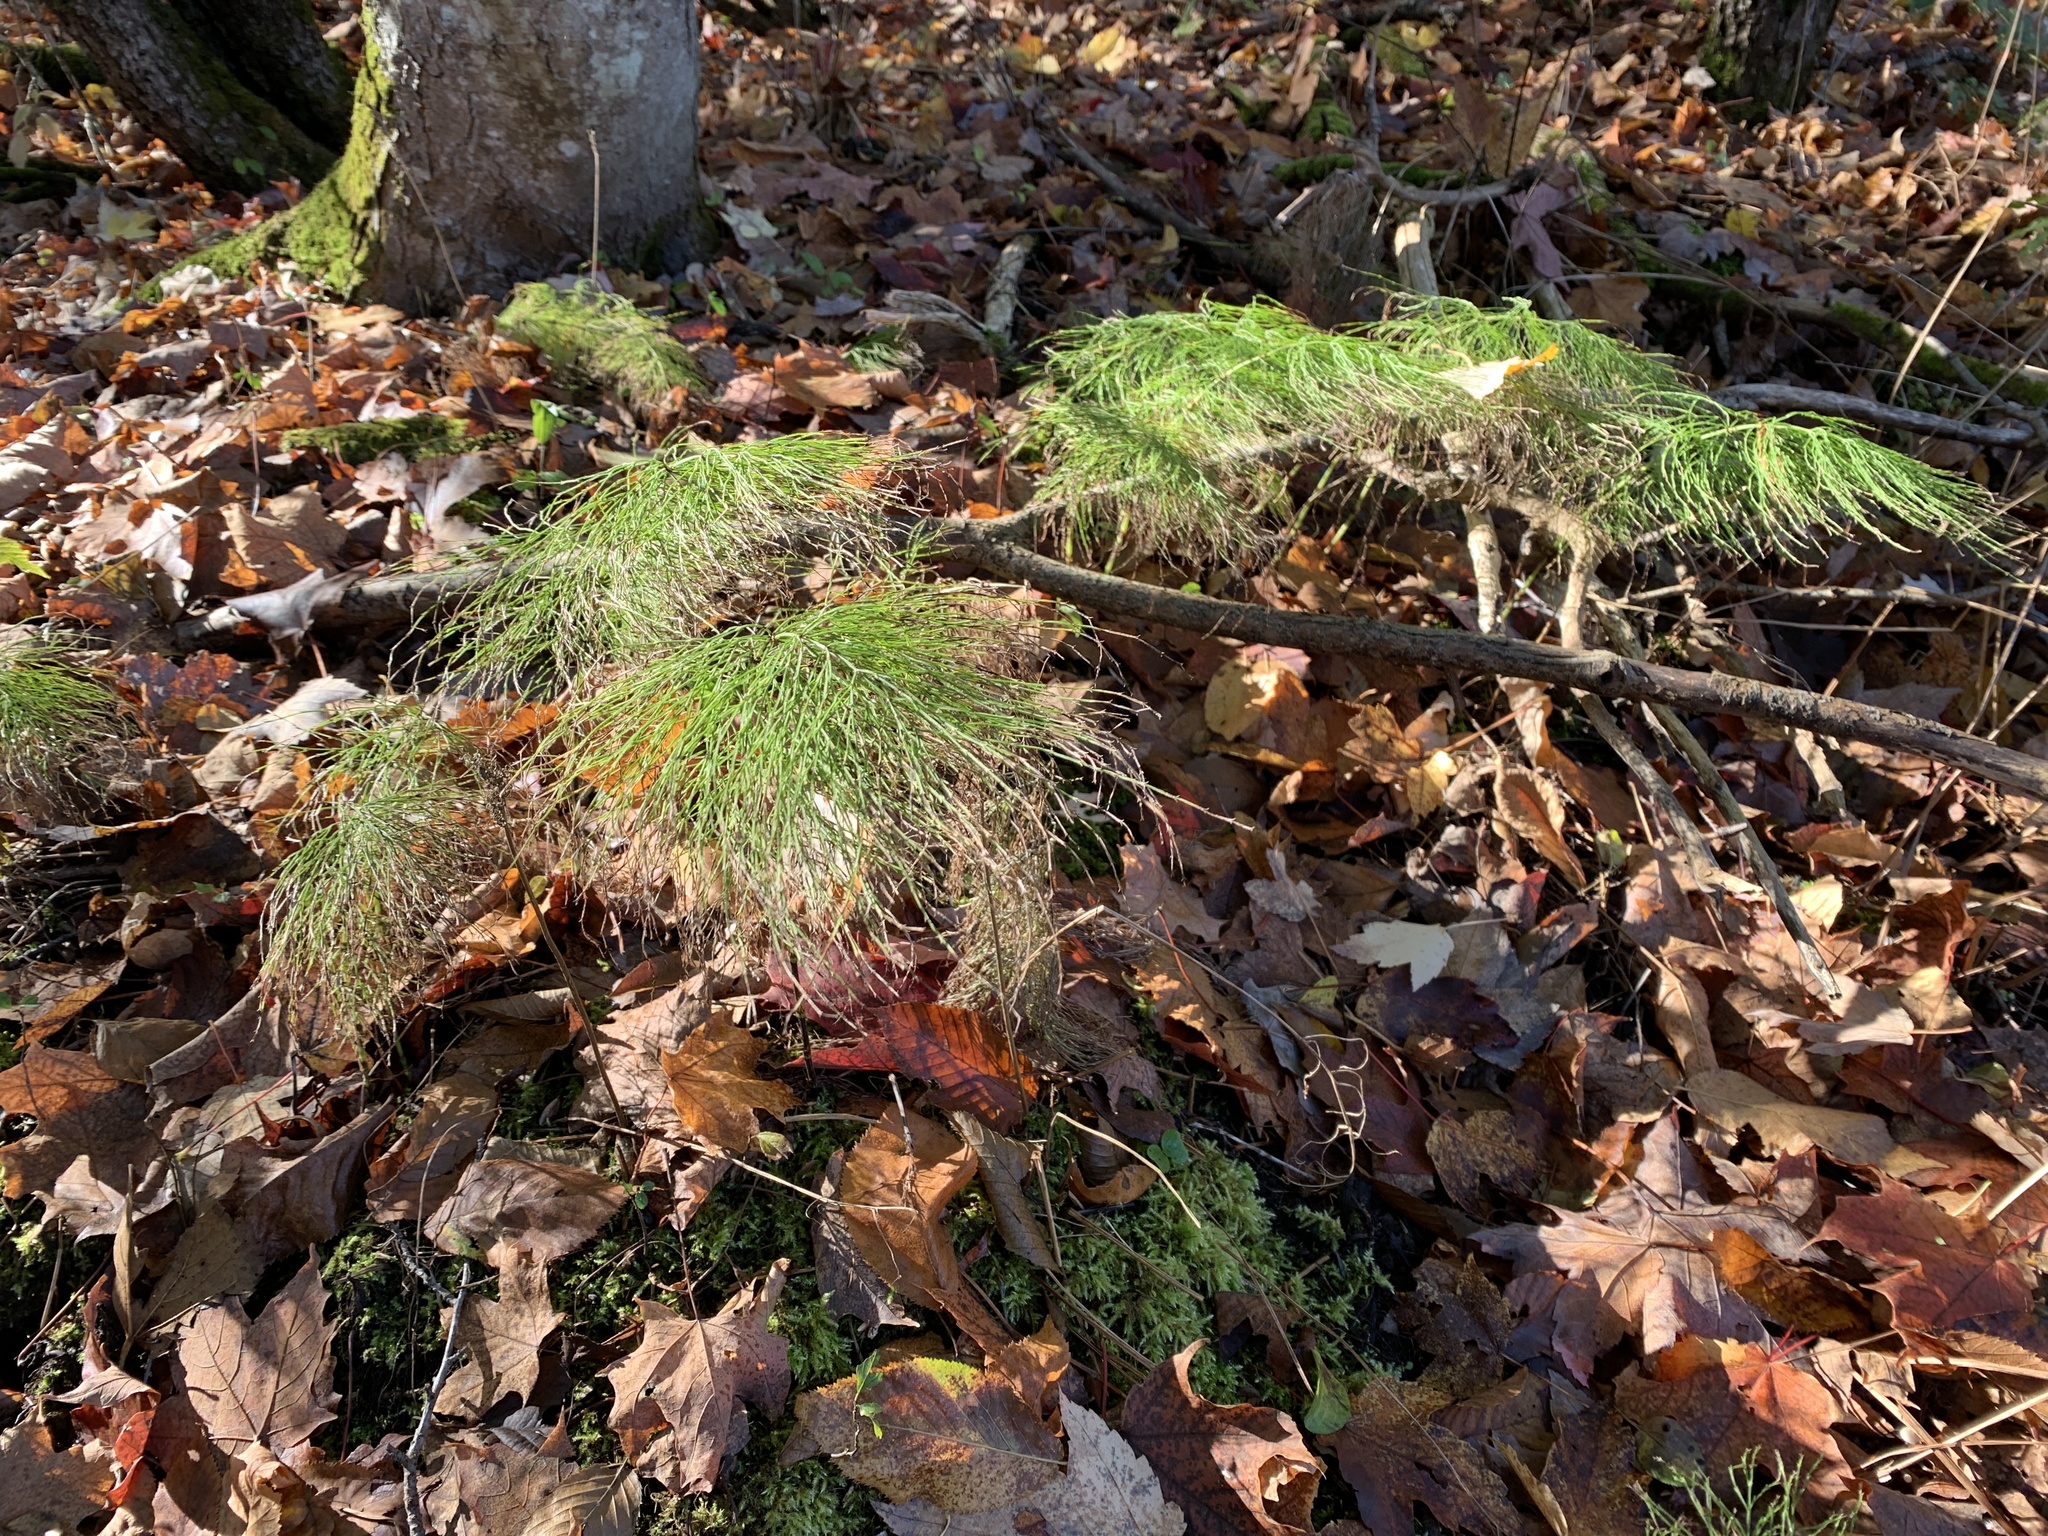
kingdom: Plantae
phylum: Tracheophyta
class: Polypodiopsida
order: Equisetales
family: Equisetaceae
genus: Equisetum
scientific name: Equisetum sylvaticum
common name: Wood horsetail
